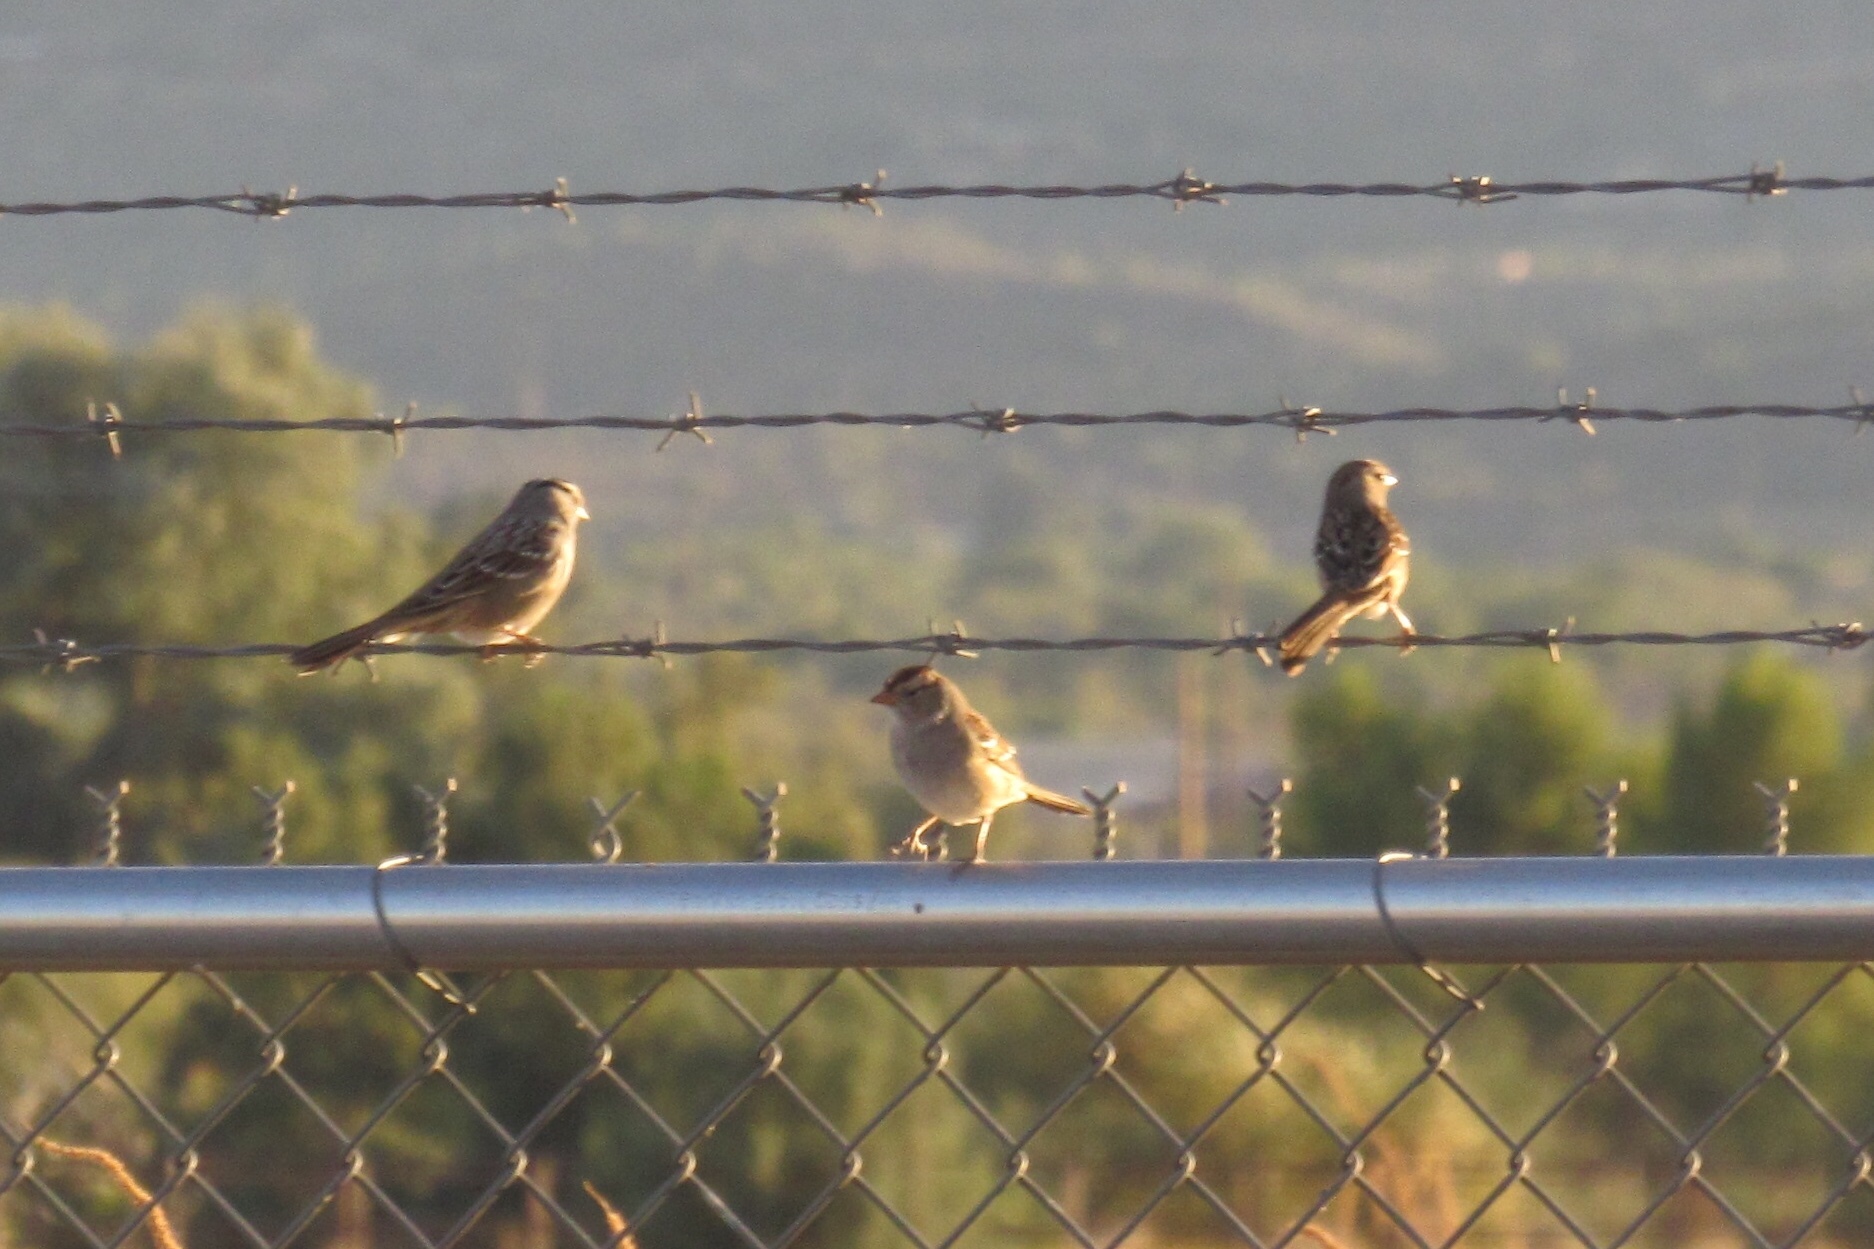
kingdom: Animalia
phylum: Chordata
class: Aves
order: Passeriformes
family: Passerellidae
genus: Zonotrichia
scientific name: Zonotrichia leucophrys
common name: White-crowned sparrow
